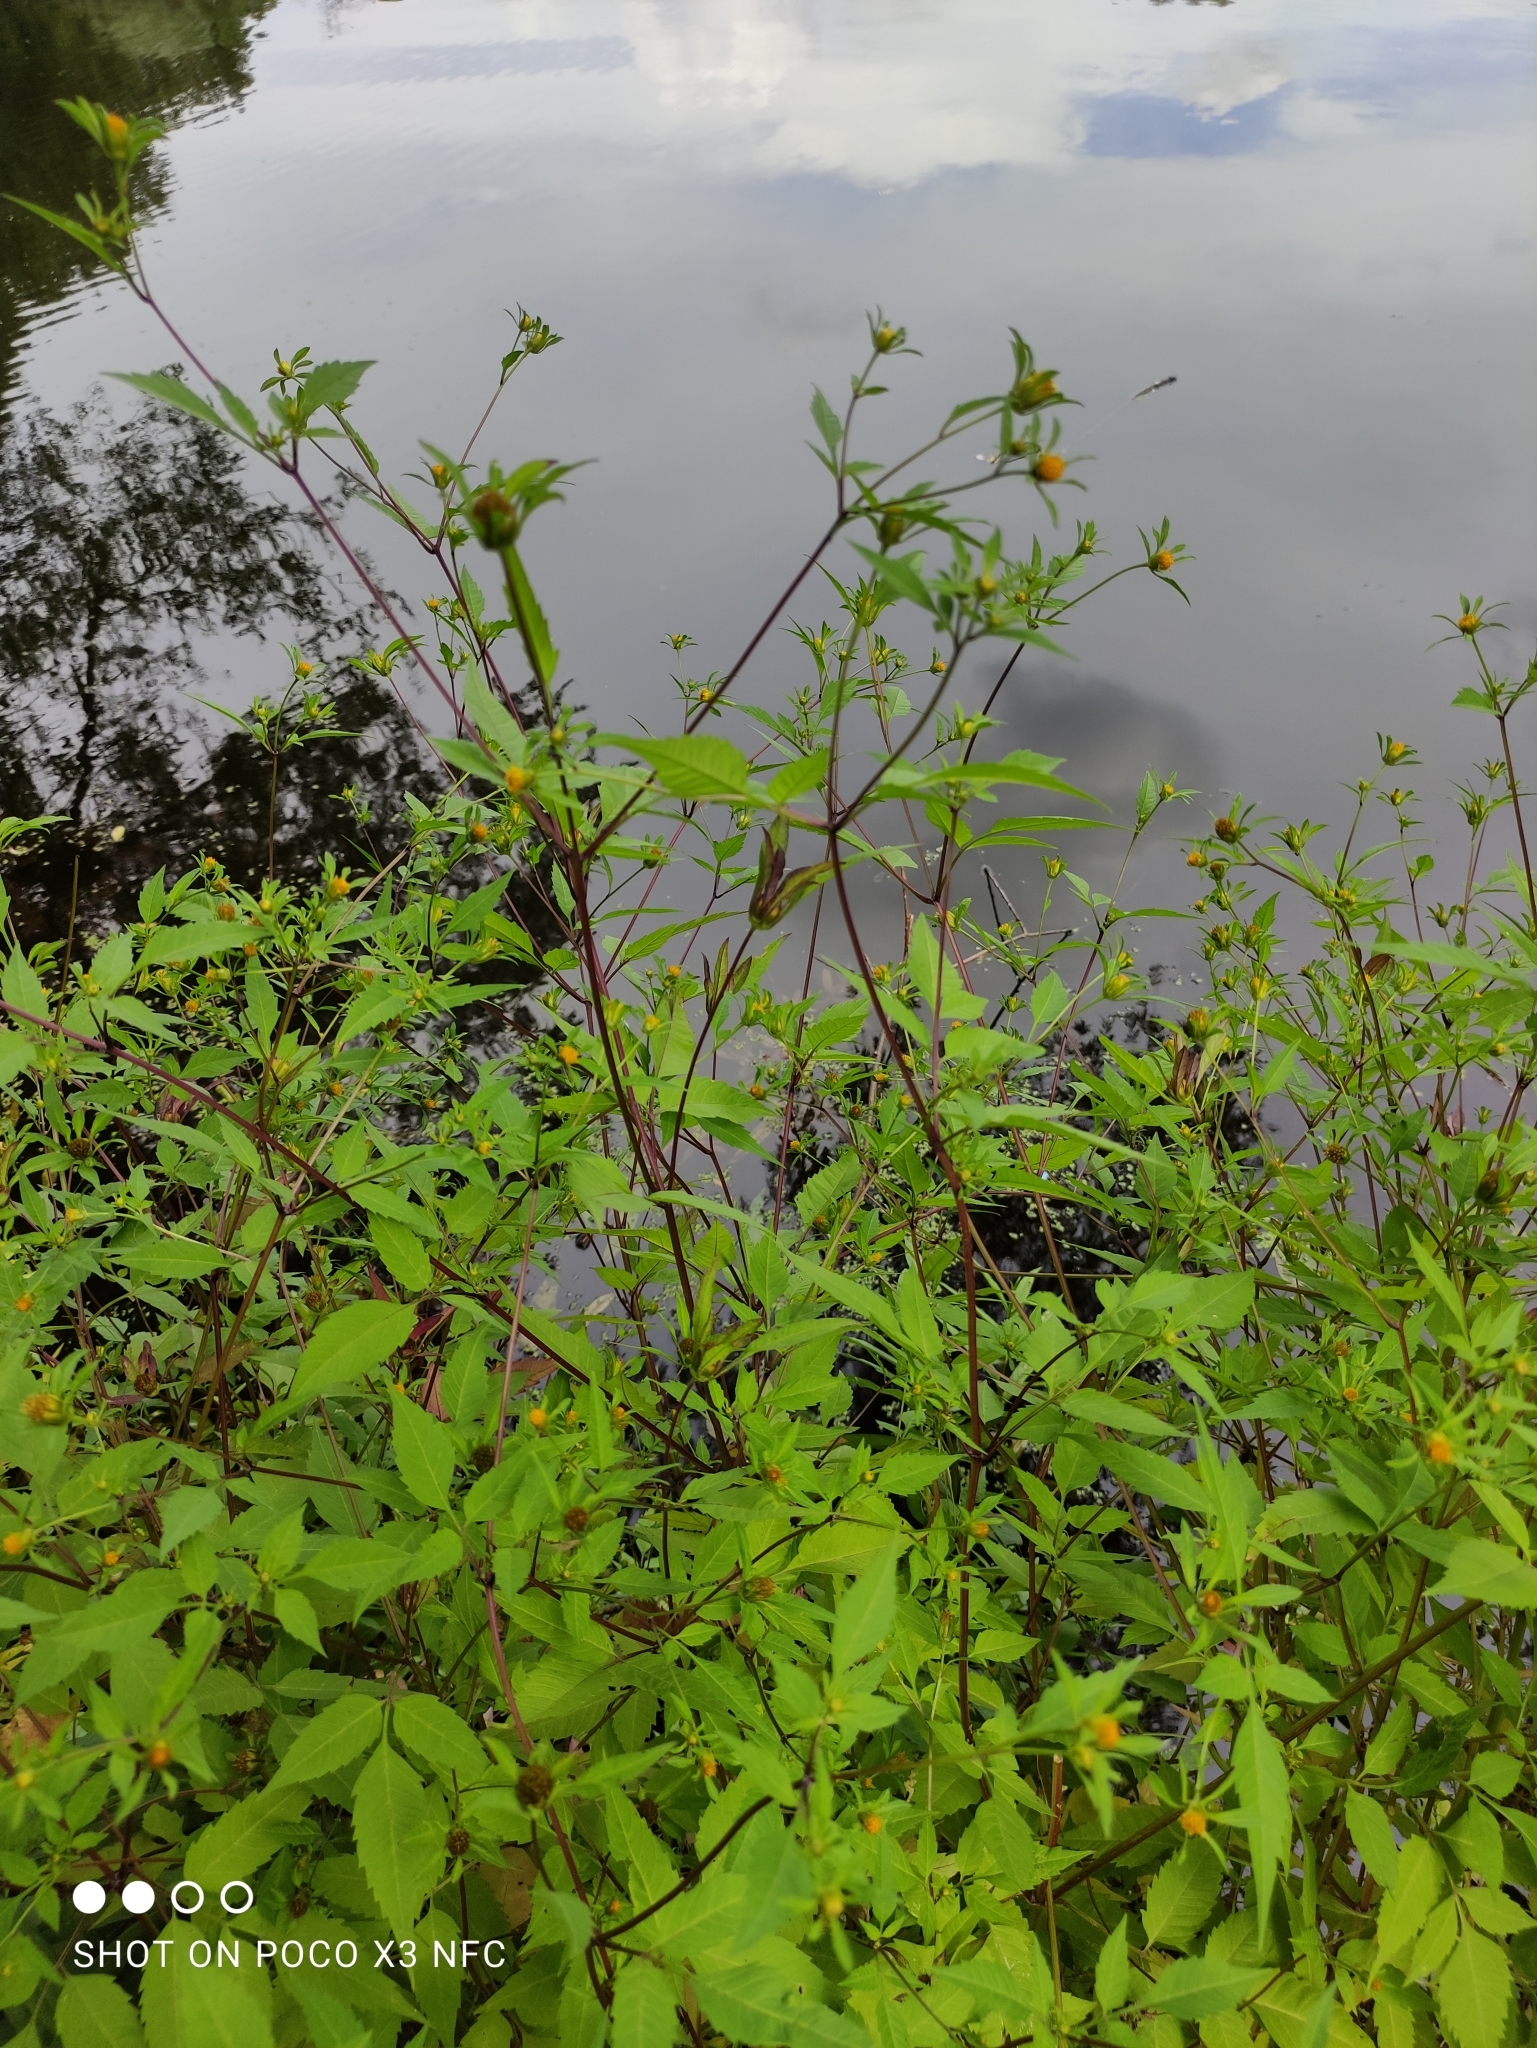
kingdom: Plantae
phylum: Tracheophyta
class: Magnoliopsida
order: Asterales
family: Asteraceae
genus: Bidens
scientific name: Bidens frondosa
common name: Beggarticks
